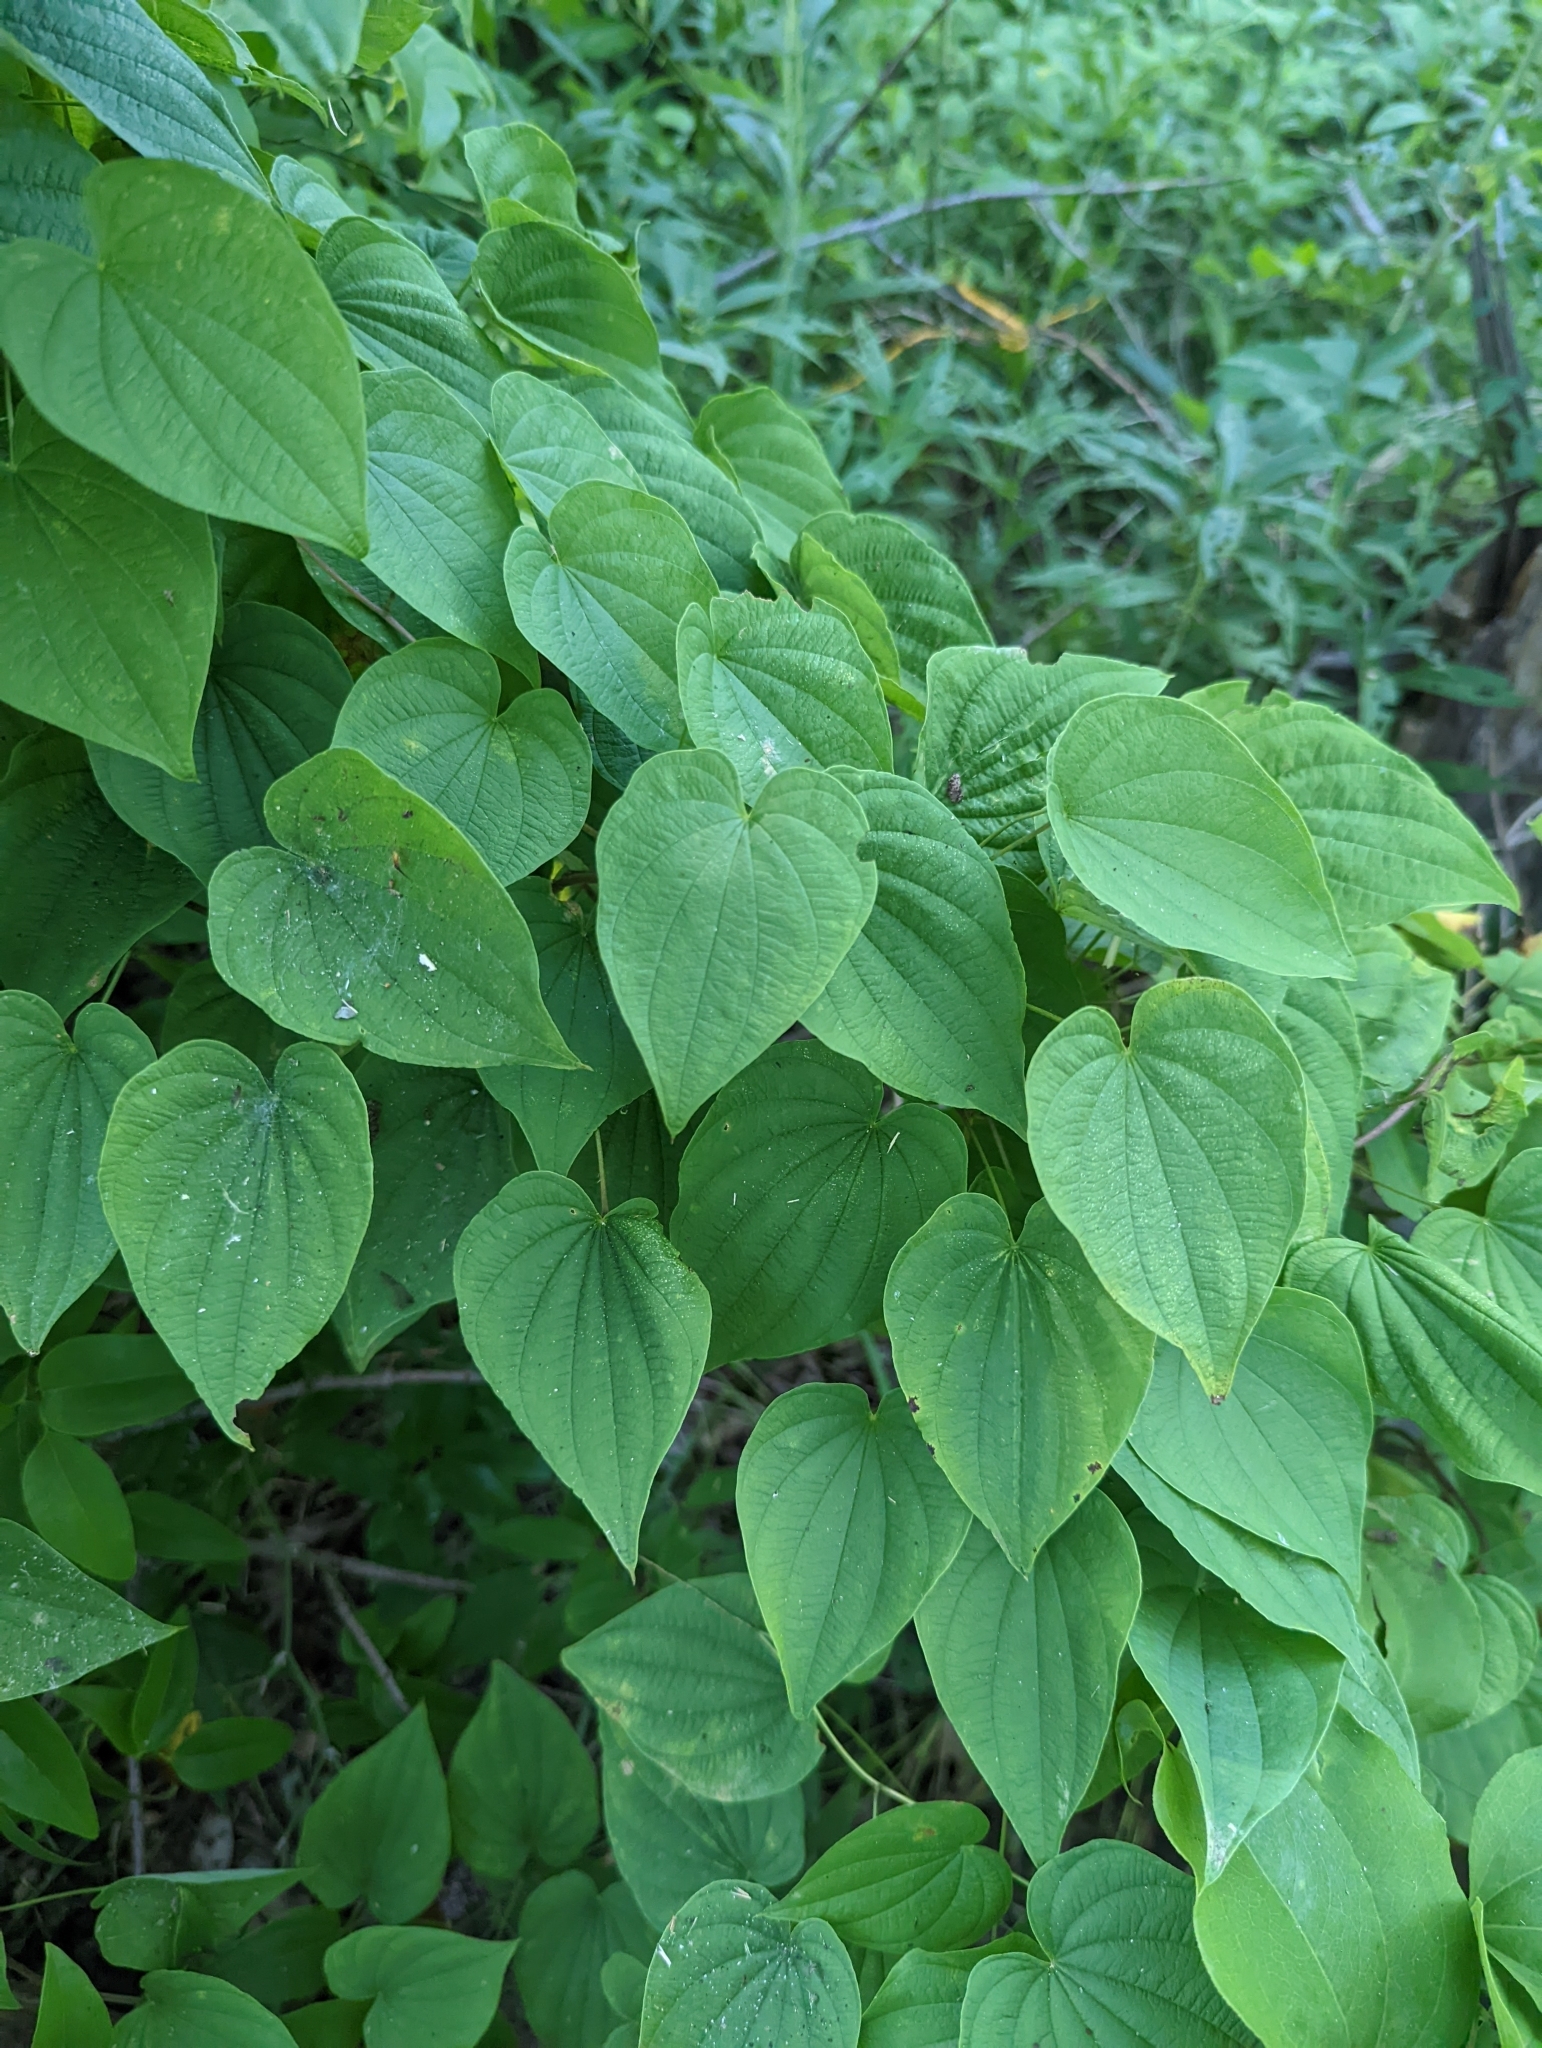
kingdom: Plantae
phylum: Tracheophyta
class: Liliopsida
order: Dioscoreales
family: Dioscoreaceae
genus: Dioscorea
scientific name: Dioscorea villosa
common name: Wild yam
